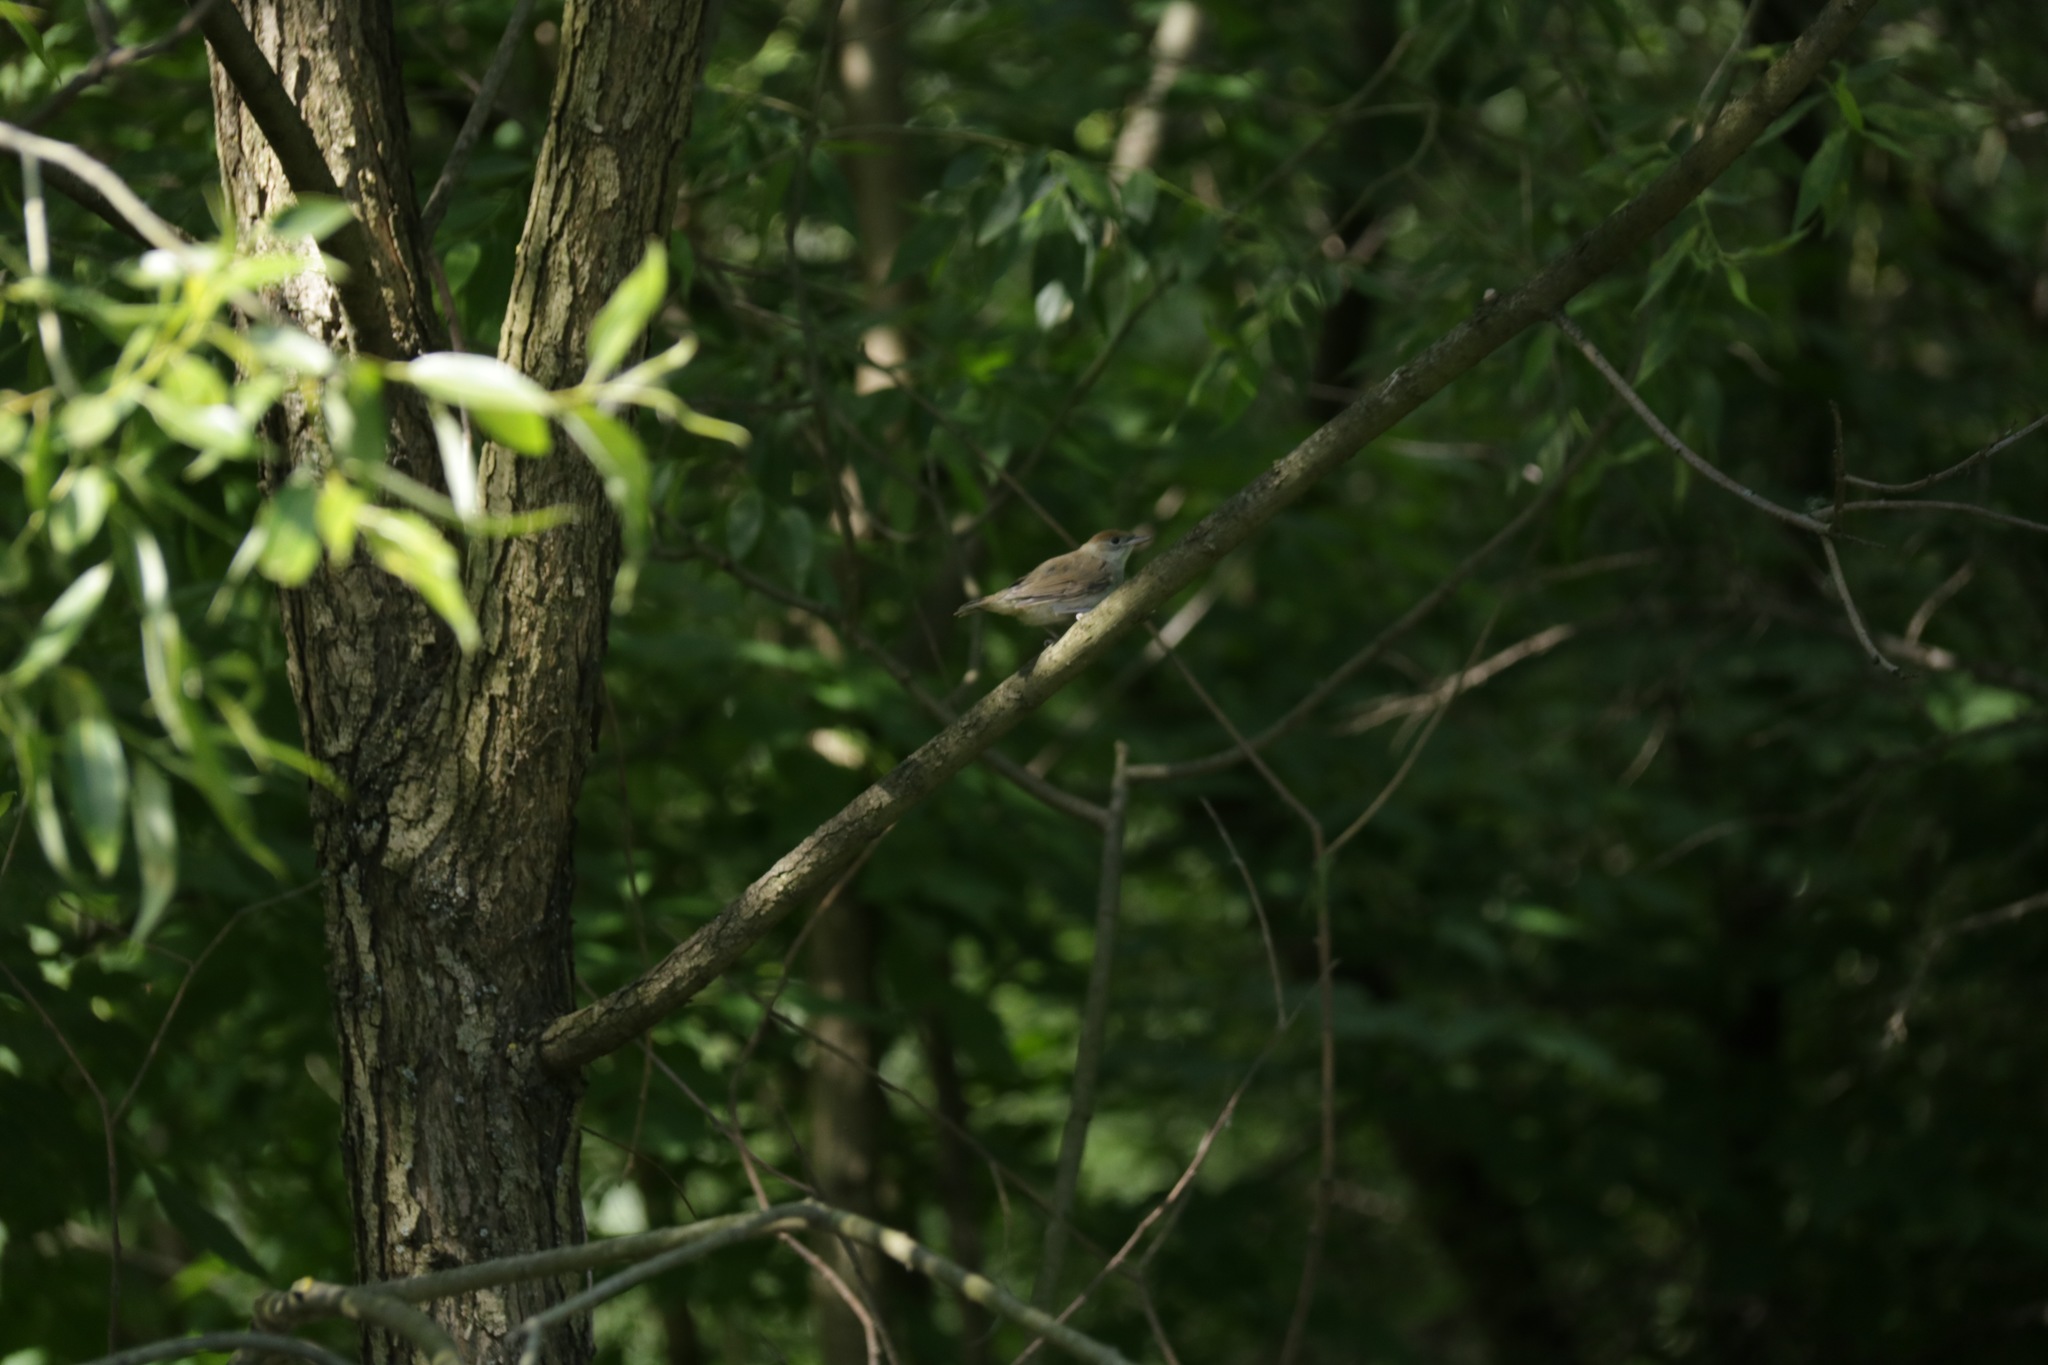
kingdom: Animalia
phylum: Chordata
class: Aves
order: Passeriformes
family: Sylviidae
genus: Sylvia
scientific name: Sylvia atricapilla
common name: Eurasian blackcap
